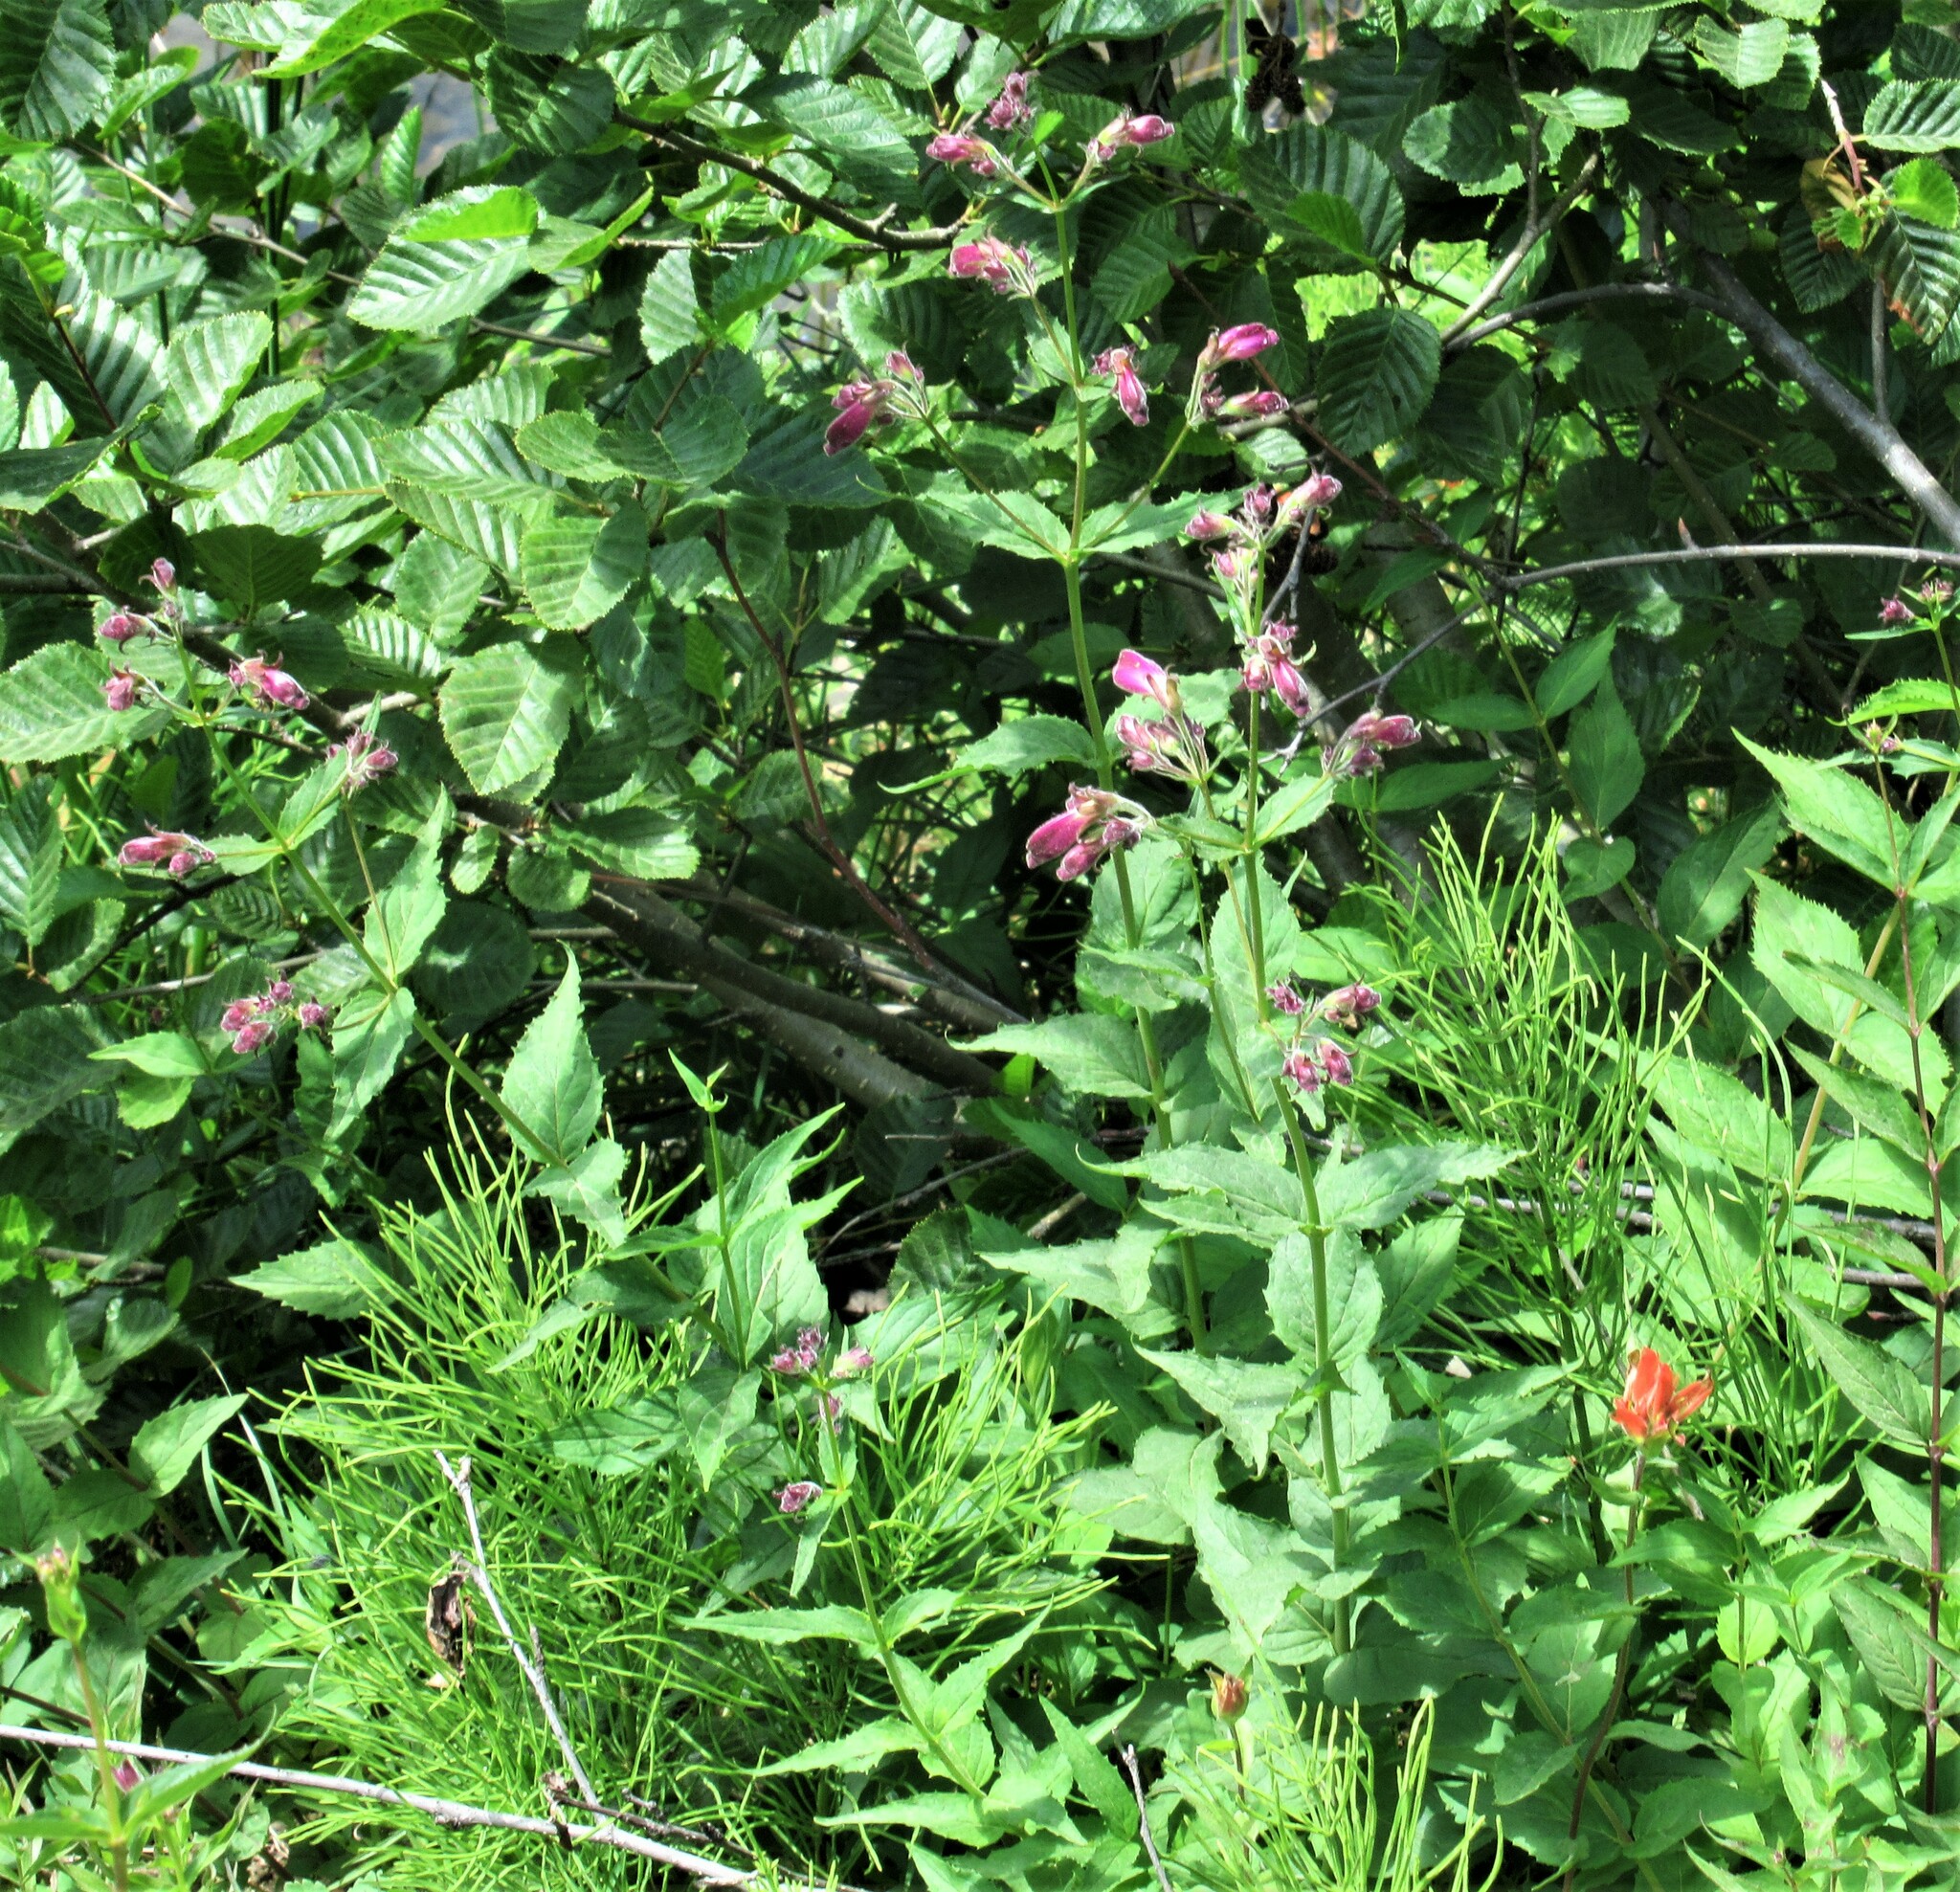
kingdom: Plantae
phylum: Tracheophyta
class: Magnoliopsida
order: Lamiales
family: Plantaginaceae
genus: Nothochelone
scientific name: Nothochelone nemorosa
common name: Woodland beardtongue
